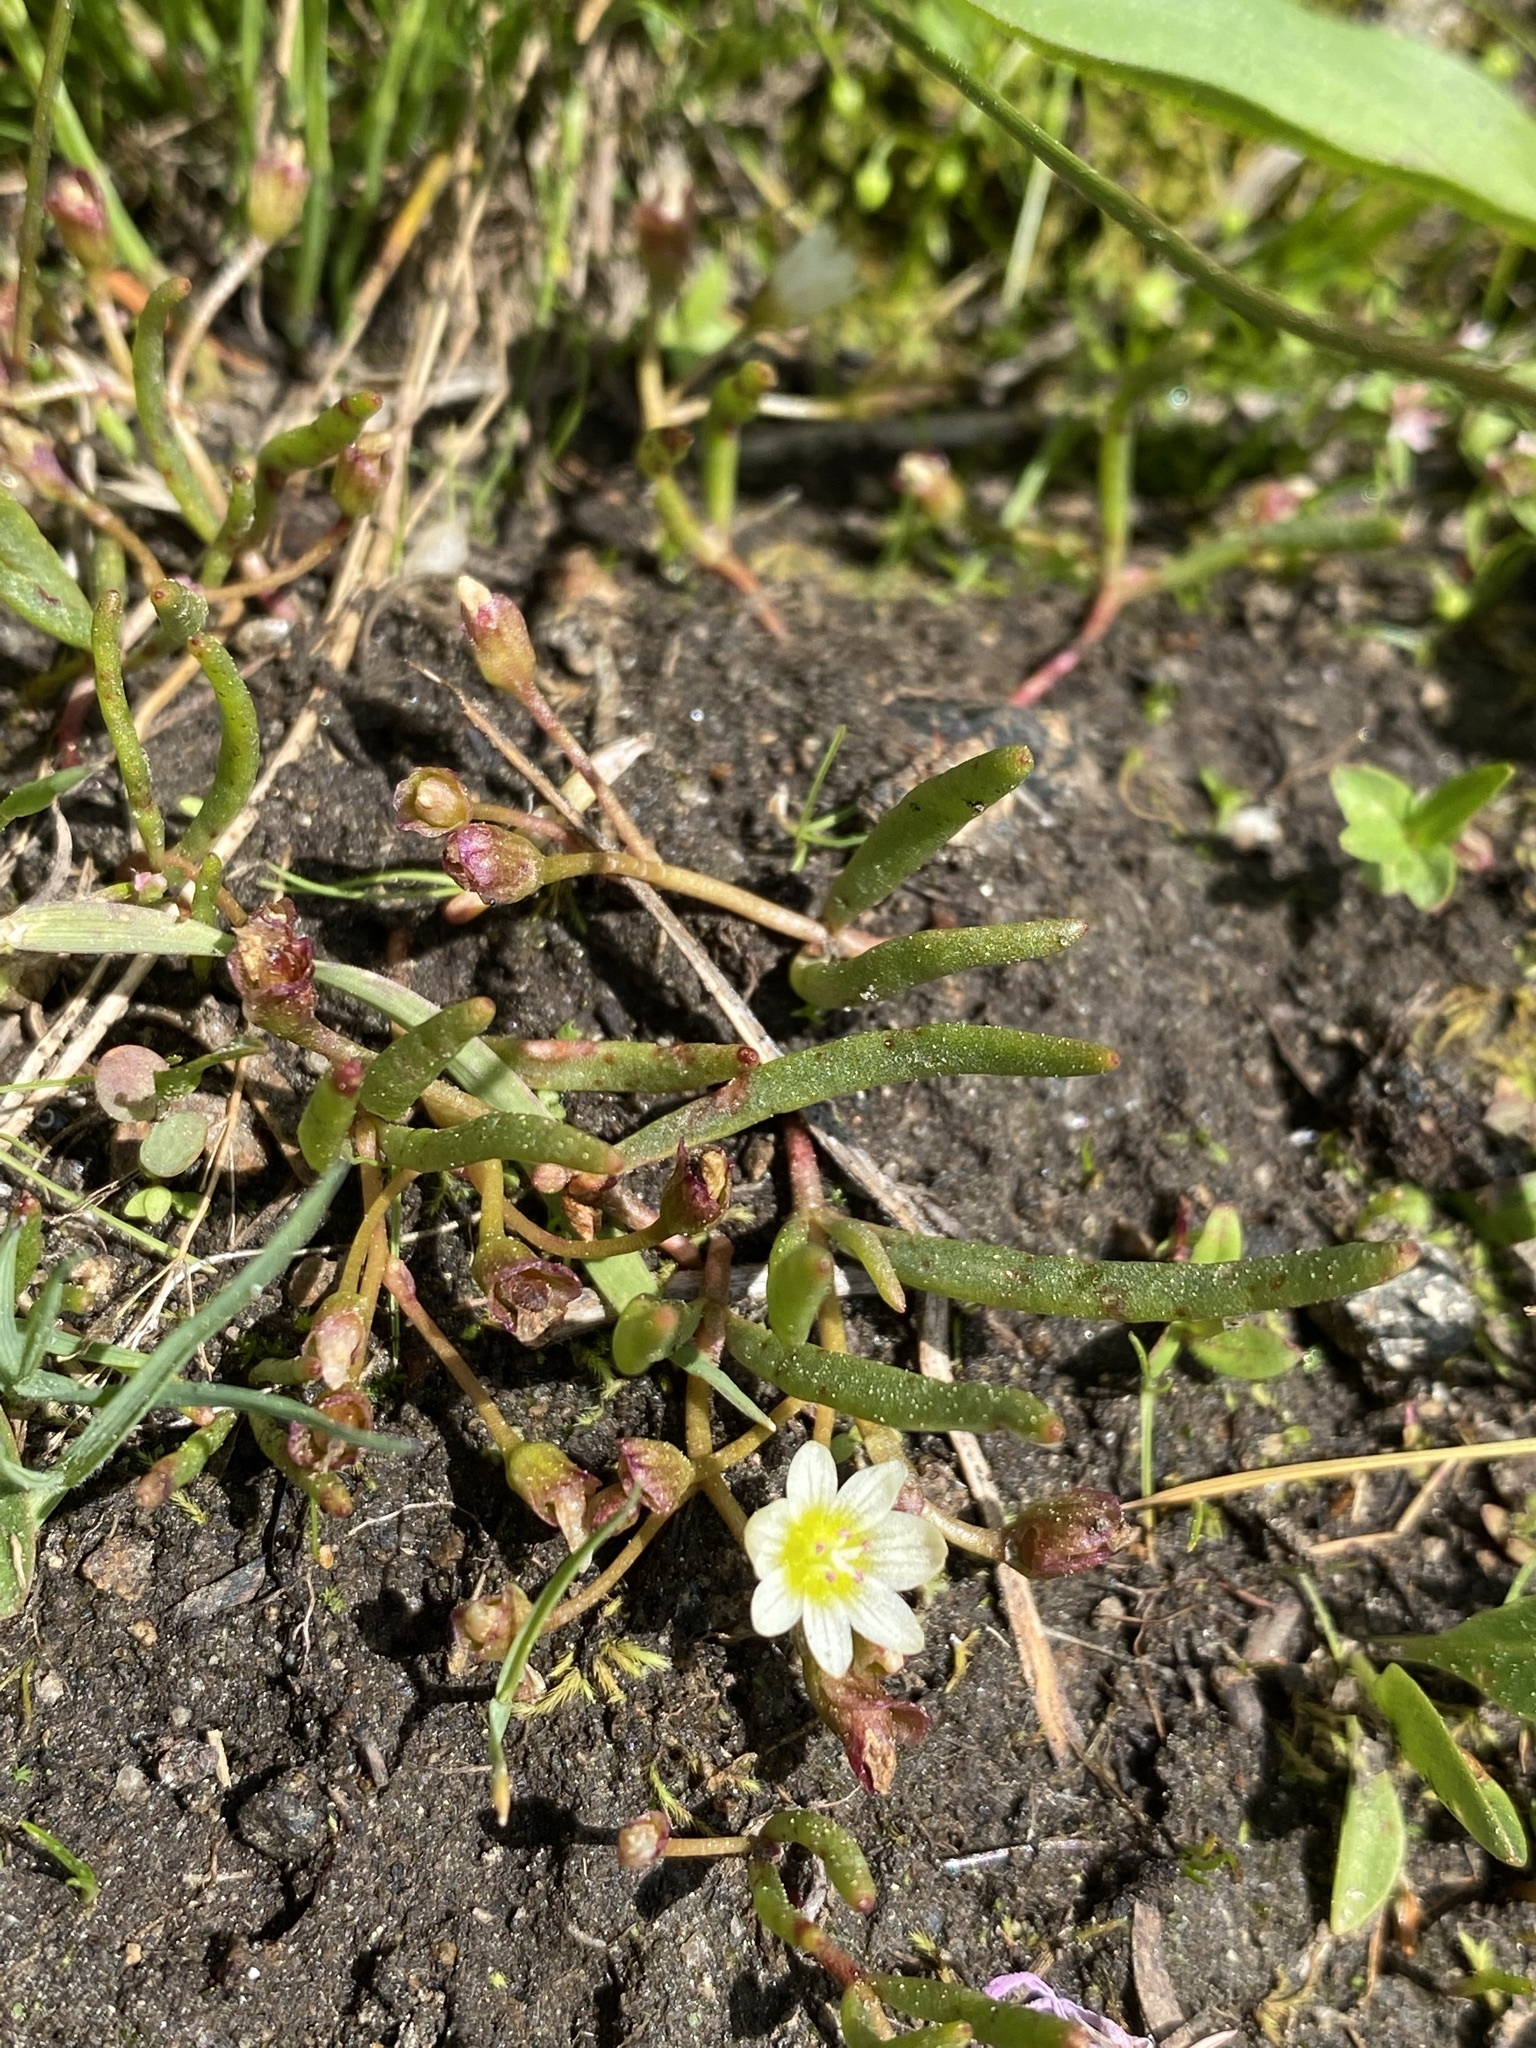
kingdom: Plantae
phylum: Tracheophyta
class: Magnoliopsida
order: Caryophyllales
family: Montiaceae
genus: Lewisia
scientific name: Lewisia triphylla
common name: Three-leaved bitterroot
